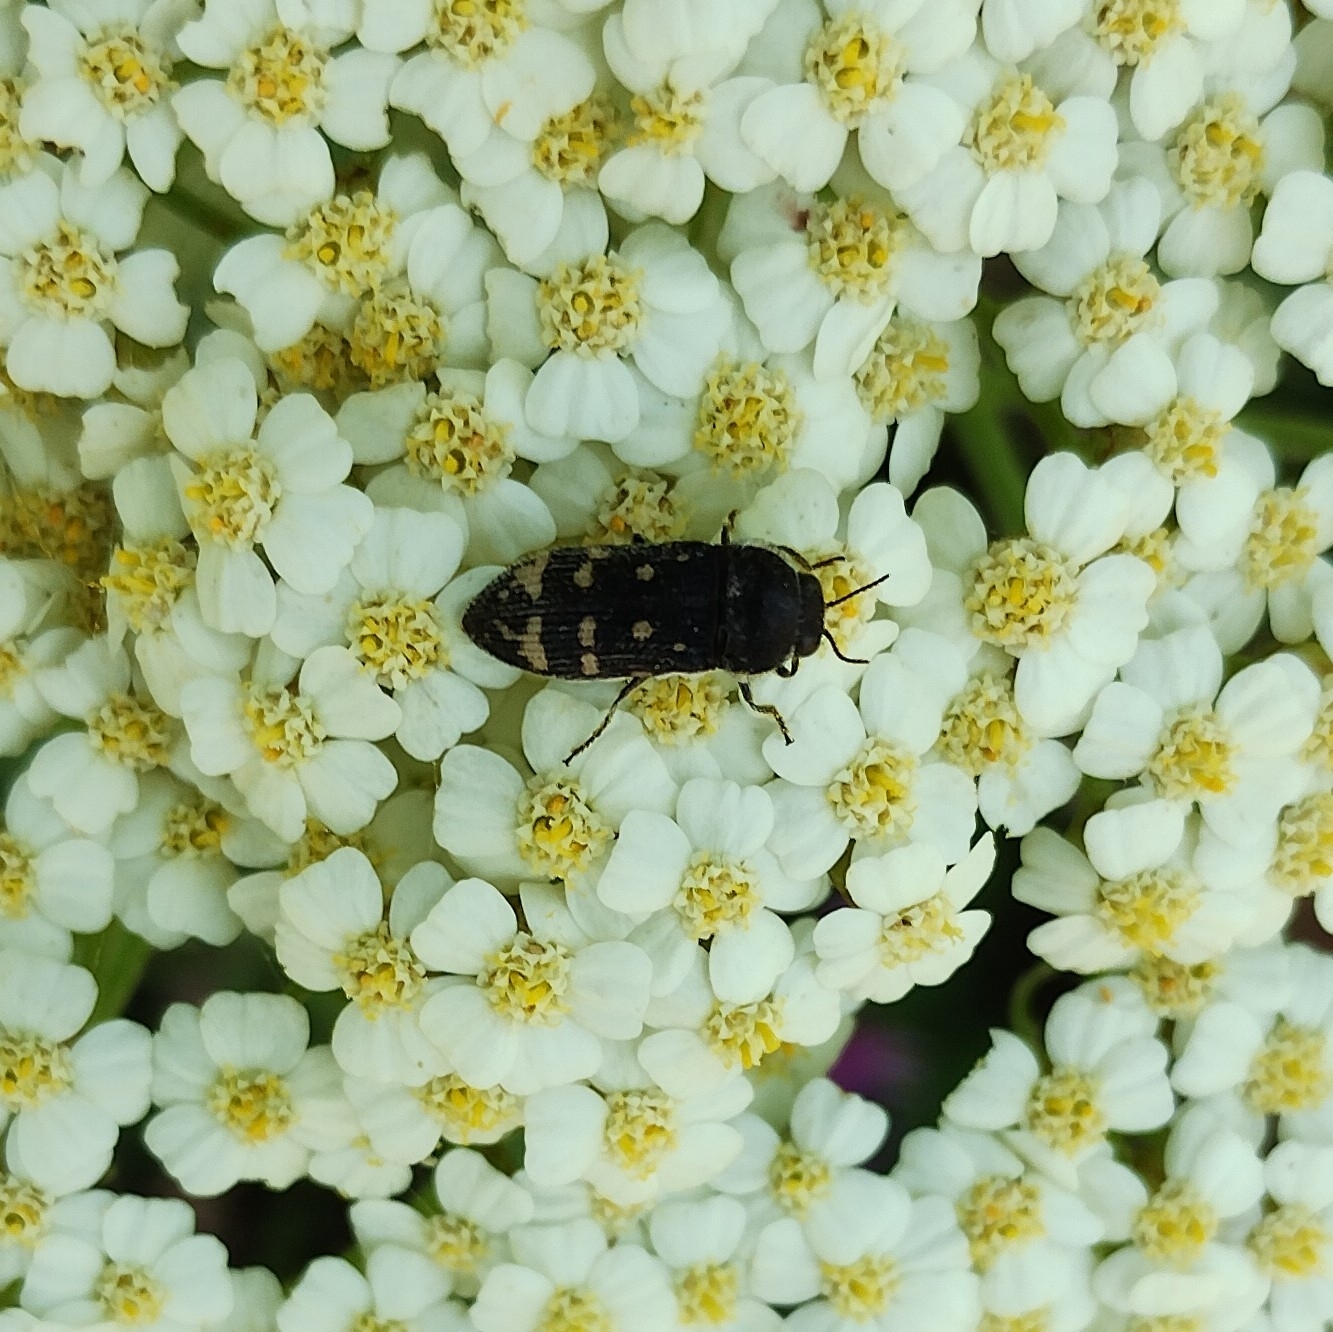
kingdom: Animalia
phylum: Arthropoda
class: Insecta
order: Coleoptera
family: Buprestidae
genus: Acmaeoderella
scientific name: Acmaeoderella flavofasciata
